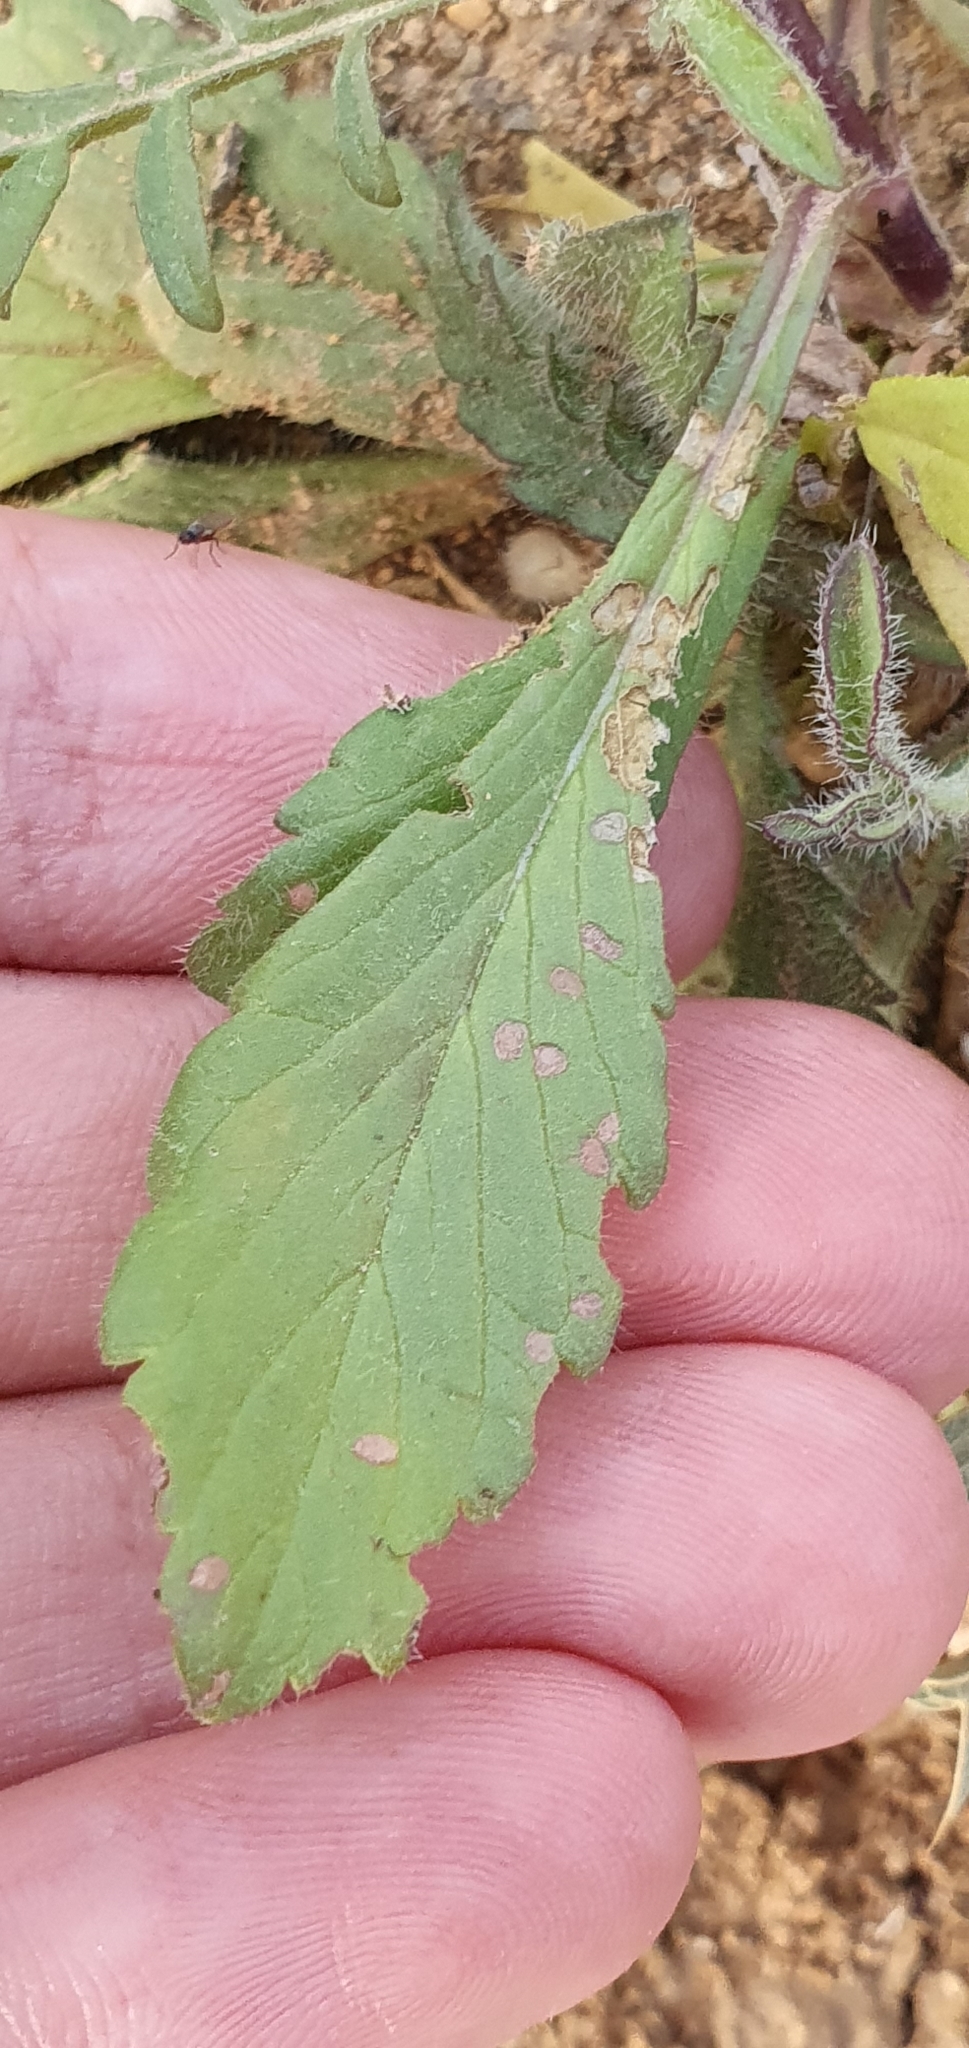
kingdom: Plantae
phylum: Tracheophyta
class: Magnoliopsida
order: Dipsacales
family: Caprifoliaceae
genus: Sixalix
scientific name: Sixalix maritima
